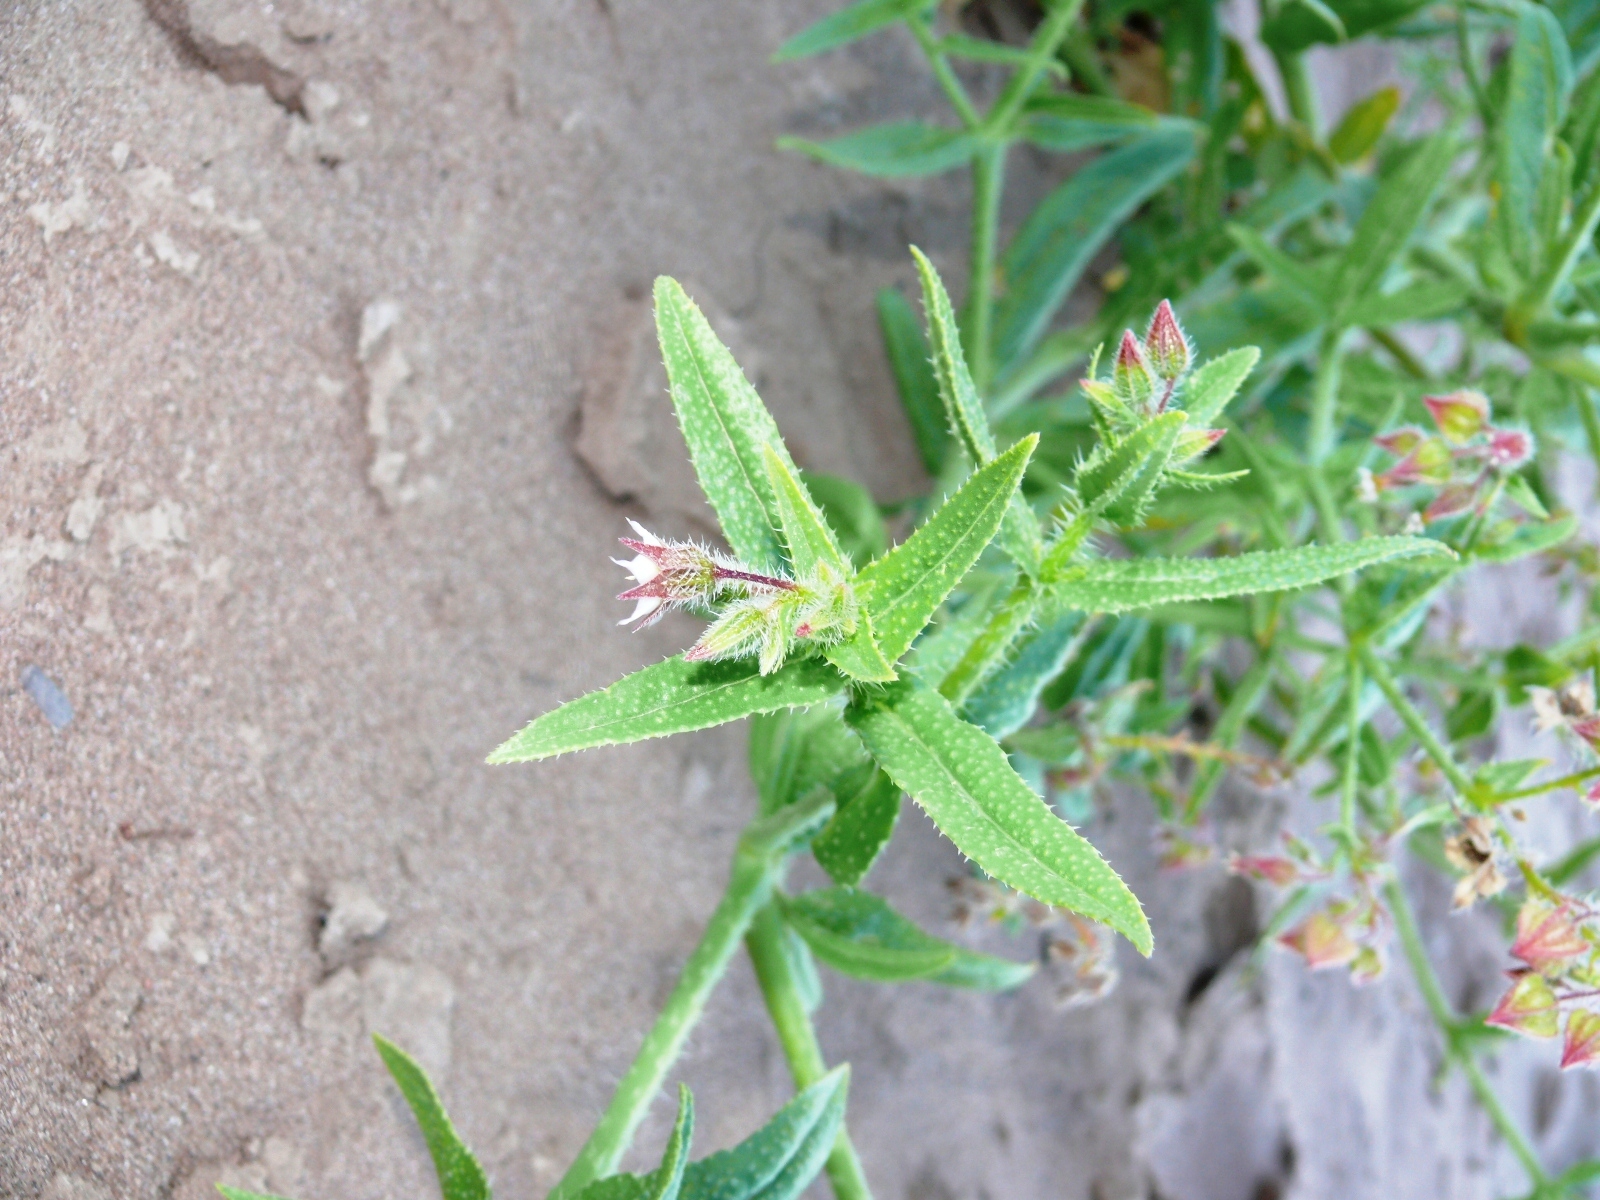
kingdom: Plantae
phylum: Tracheophyta
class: Magnoliopsida
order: Boraginales
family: Boraginaceae
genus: Trichodesma
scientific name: Trichodesma africanum
